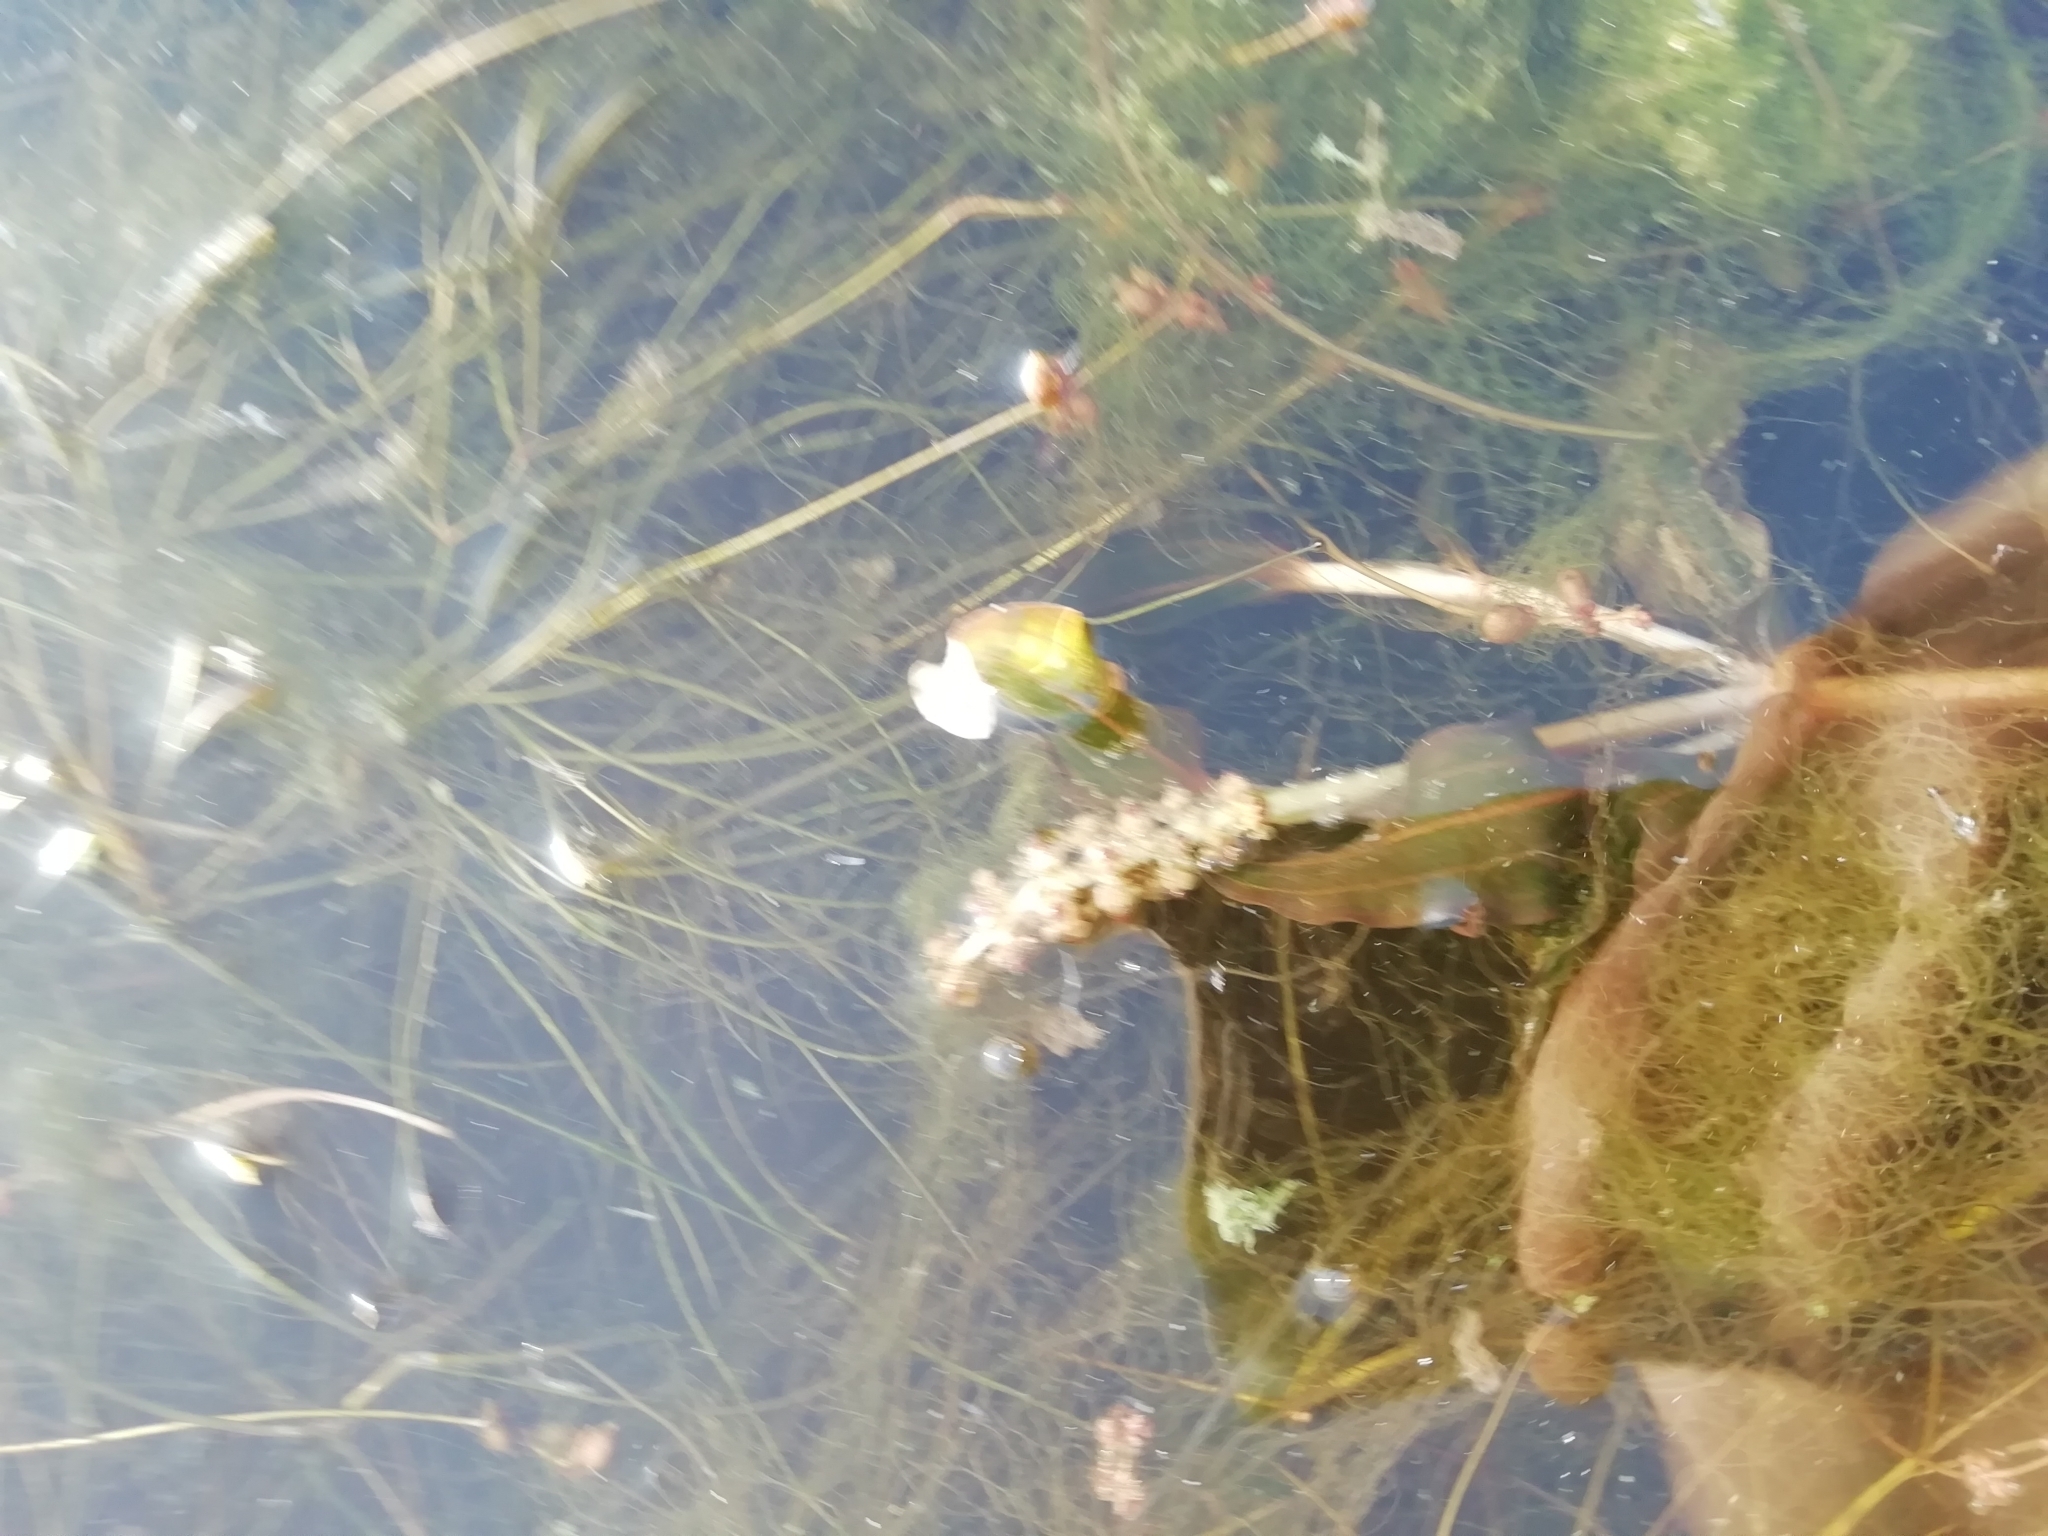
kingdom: Plantae
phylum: Tracheophyta
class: Liliopsida
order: Alismatales
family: Potamogetonaceae
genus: Potamogeton
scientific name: Potamogeton perfoliatus
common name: Perfoliate pondweed
